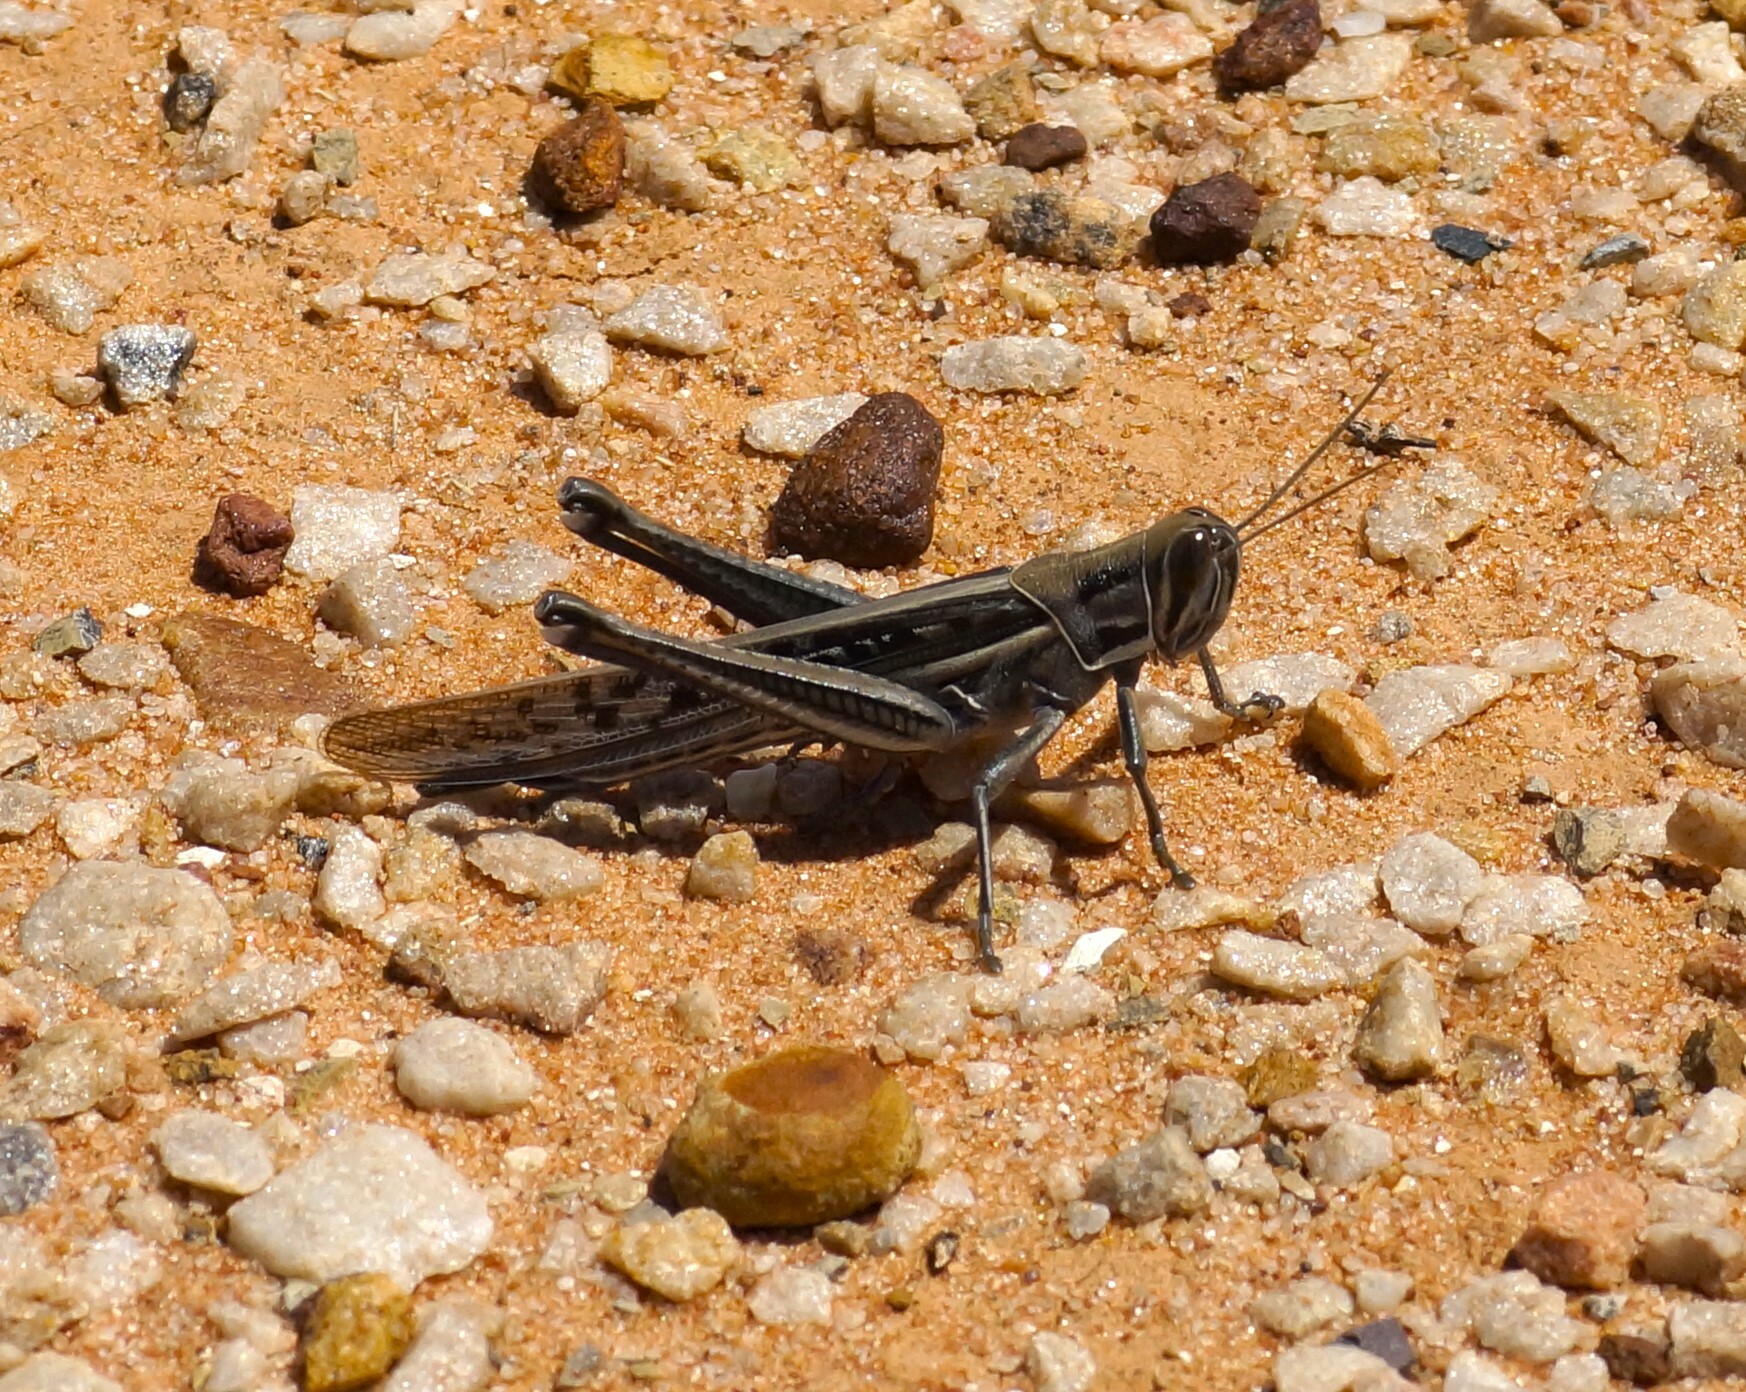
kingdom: Animalia
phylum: Arthropoda
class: Insecta
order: Orthoptera
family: Acrididae
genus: Austracris
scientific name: Austracris guttulosa
